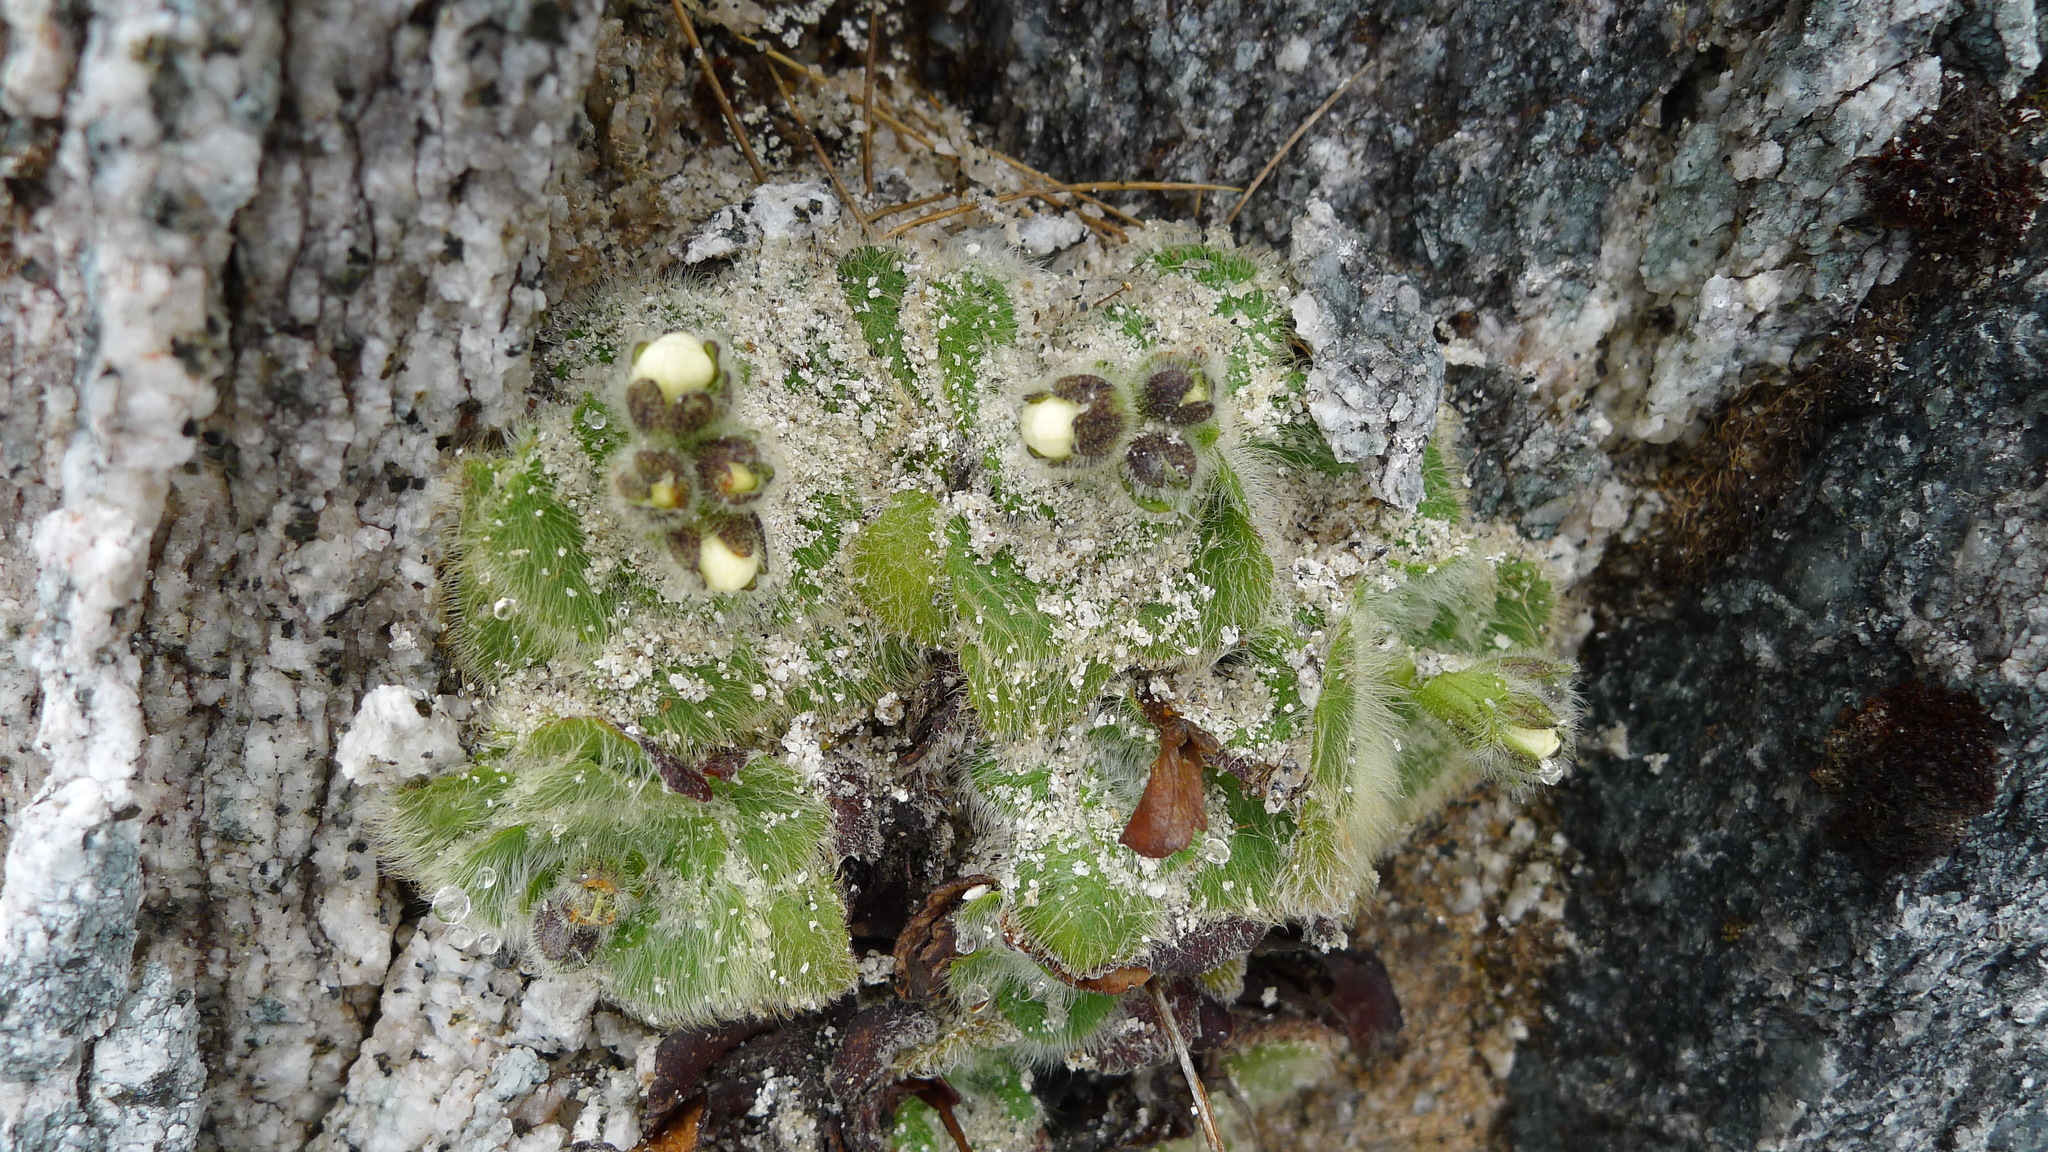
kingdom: Plantae
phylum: Tracheophyta
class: Magnoliopsida
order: Lamiales
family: Plantaginaceae
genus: Ourisia
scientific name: Ourisia confertifolia
